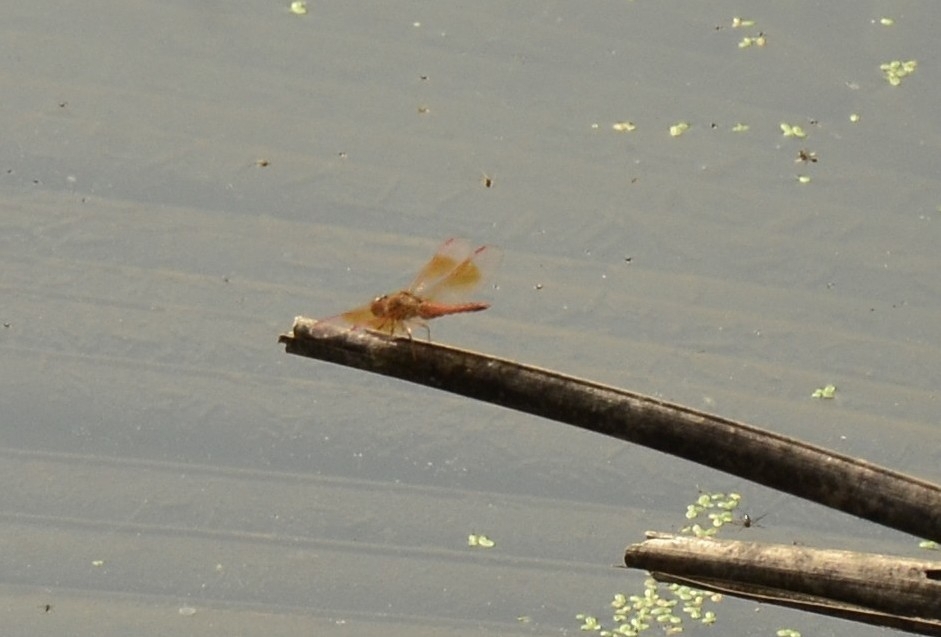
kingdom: Animalia
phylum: Arthropoda
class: Insecta
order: Odonata
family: Libellulidae
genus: Brachythemis
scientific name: Brachythemis contaminata
